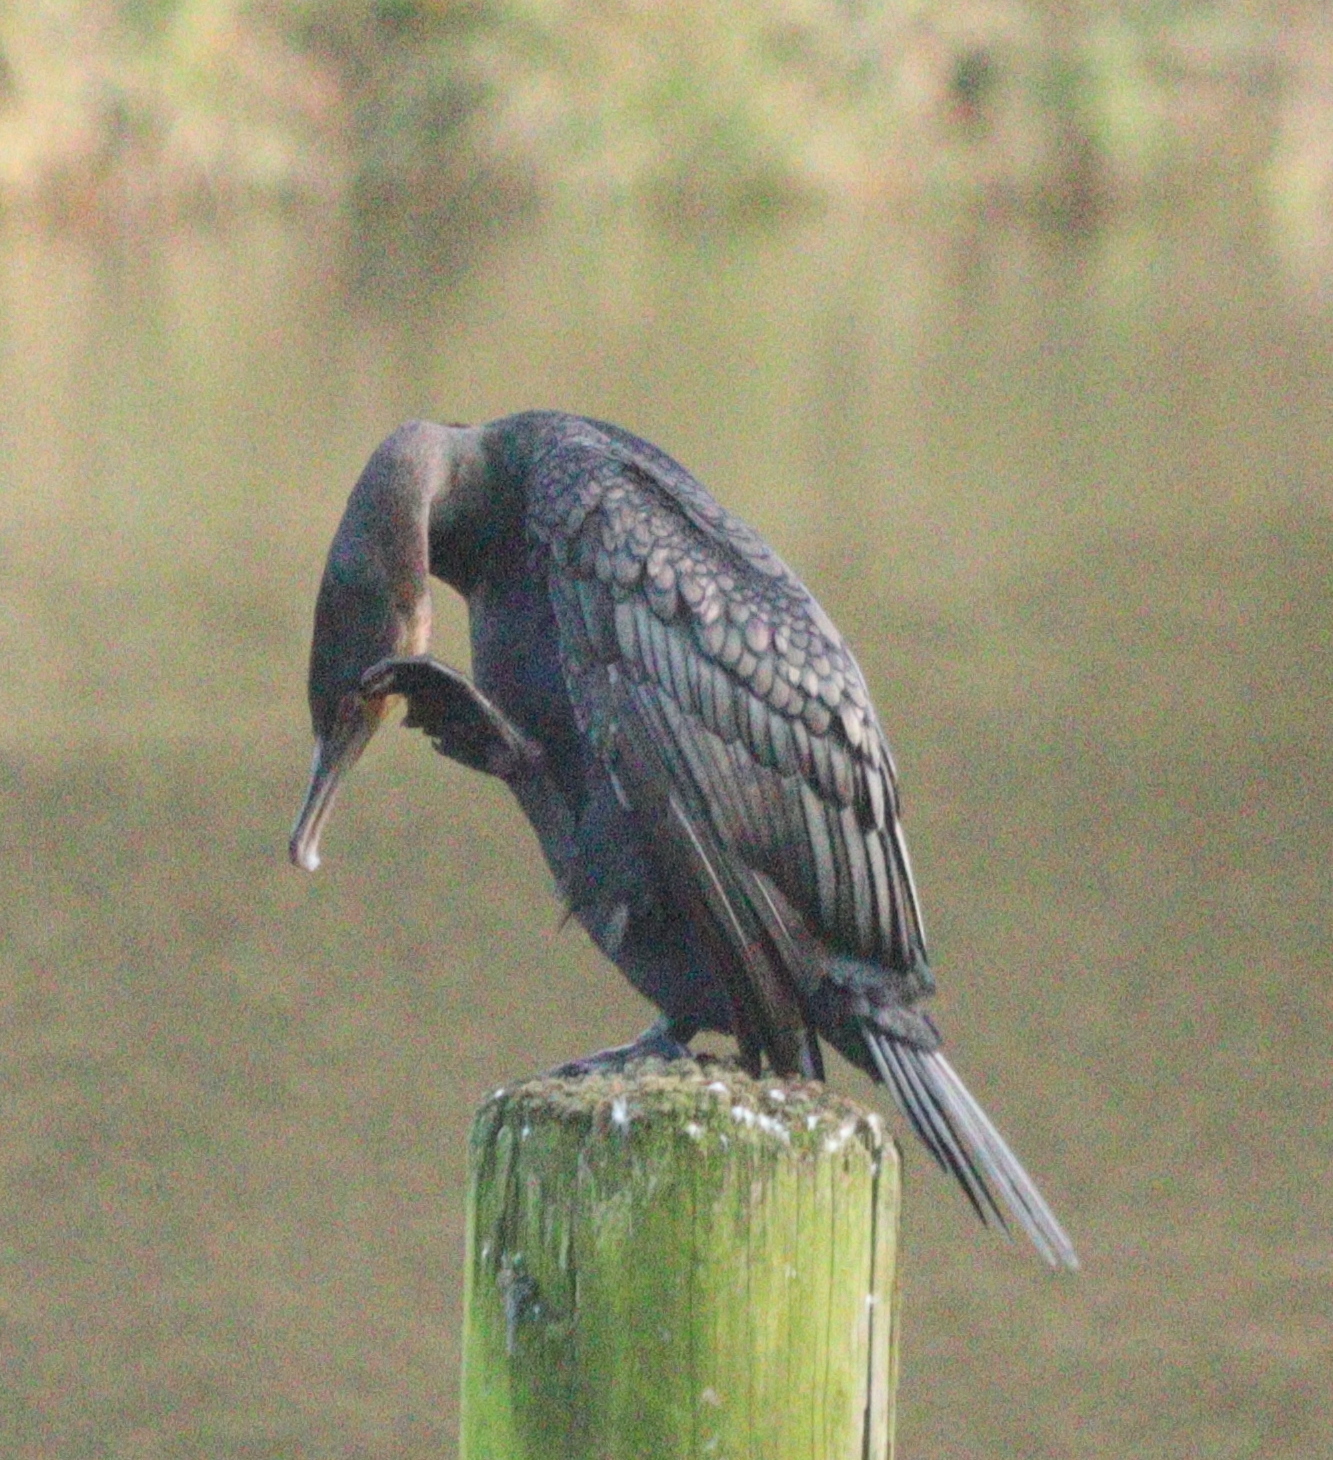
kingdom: Animalia
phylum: Chordata
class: Aves
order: Suliformes
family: Phalacrocoracidae
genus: Phalacrocorax
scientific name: Phalacrocorax carbo
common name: Great cormorant
